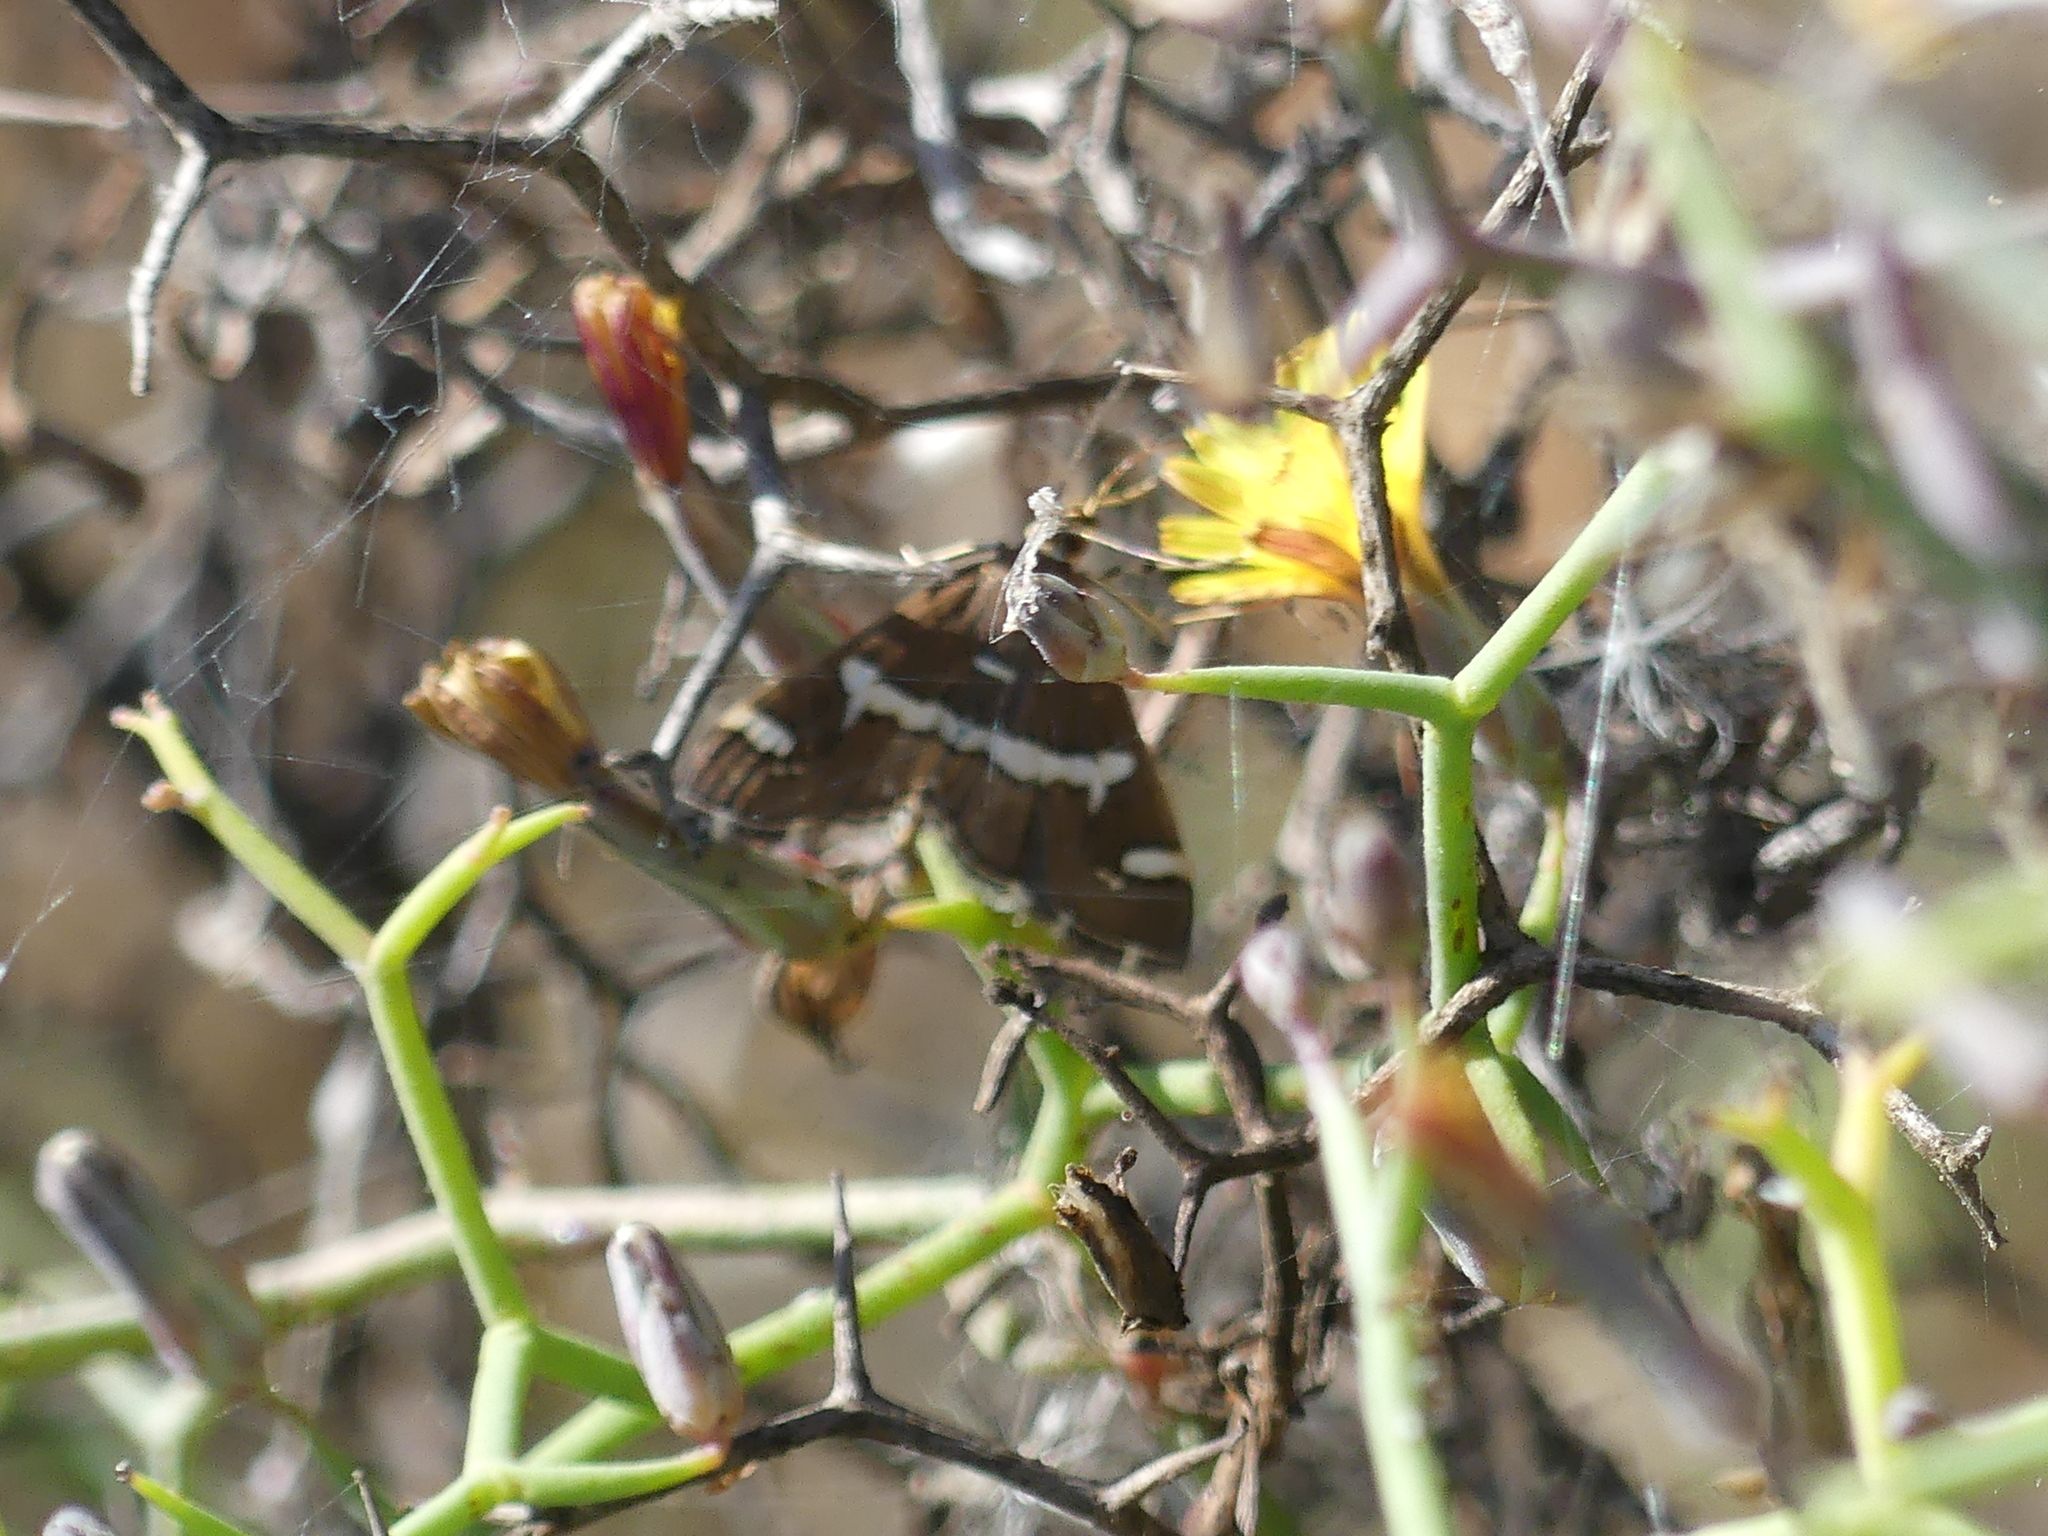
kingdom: Animalia
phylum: Arthropoda
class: Insecta
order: Lepidoptera
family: Crambidae
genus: Spoladea
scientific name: Spoladea recurvalis
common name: Beet webworm moth
